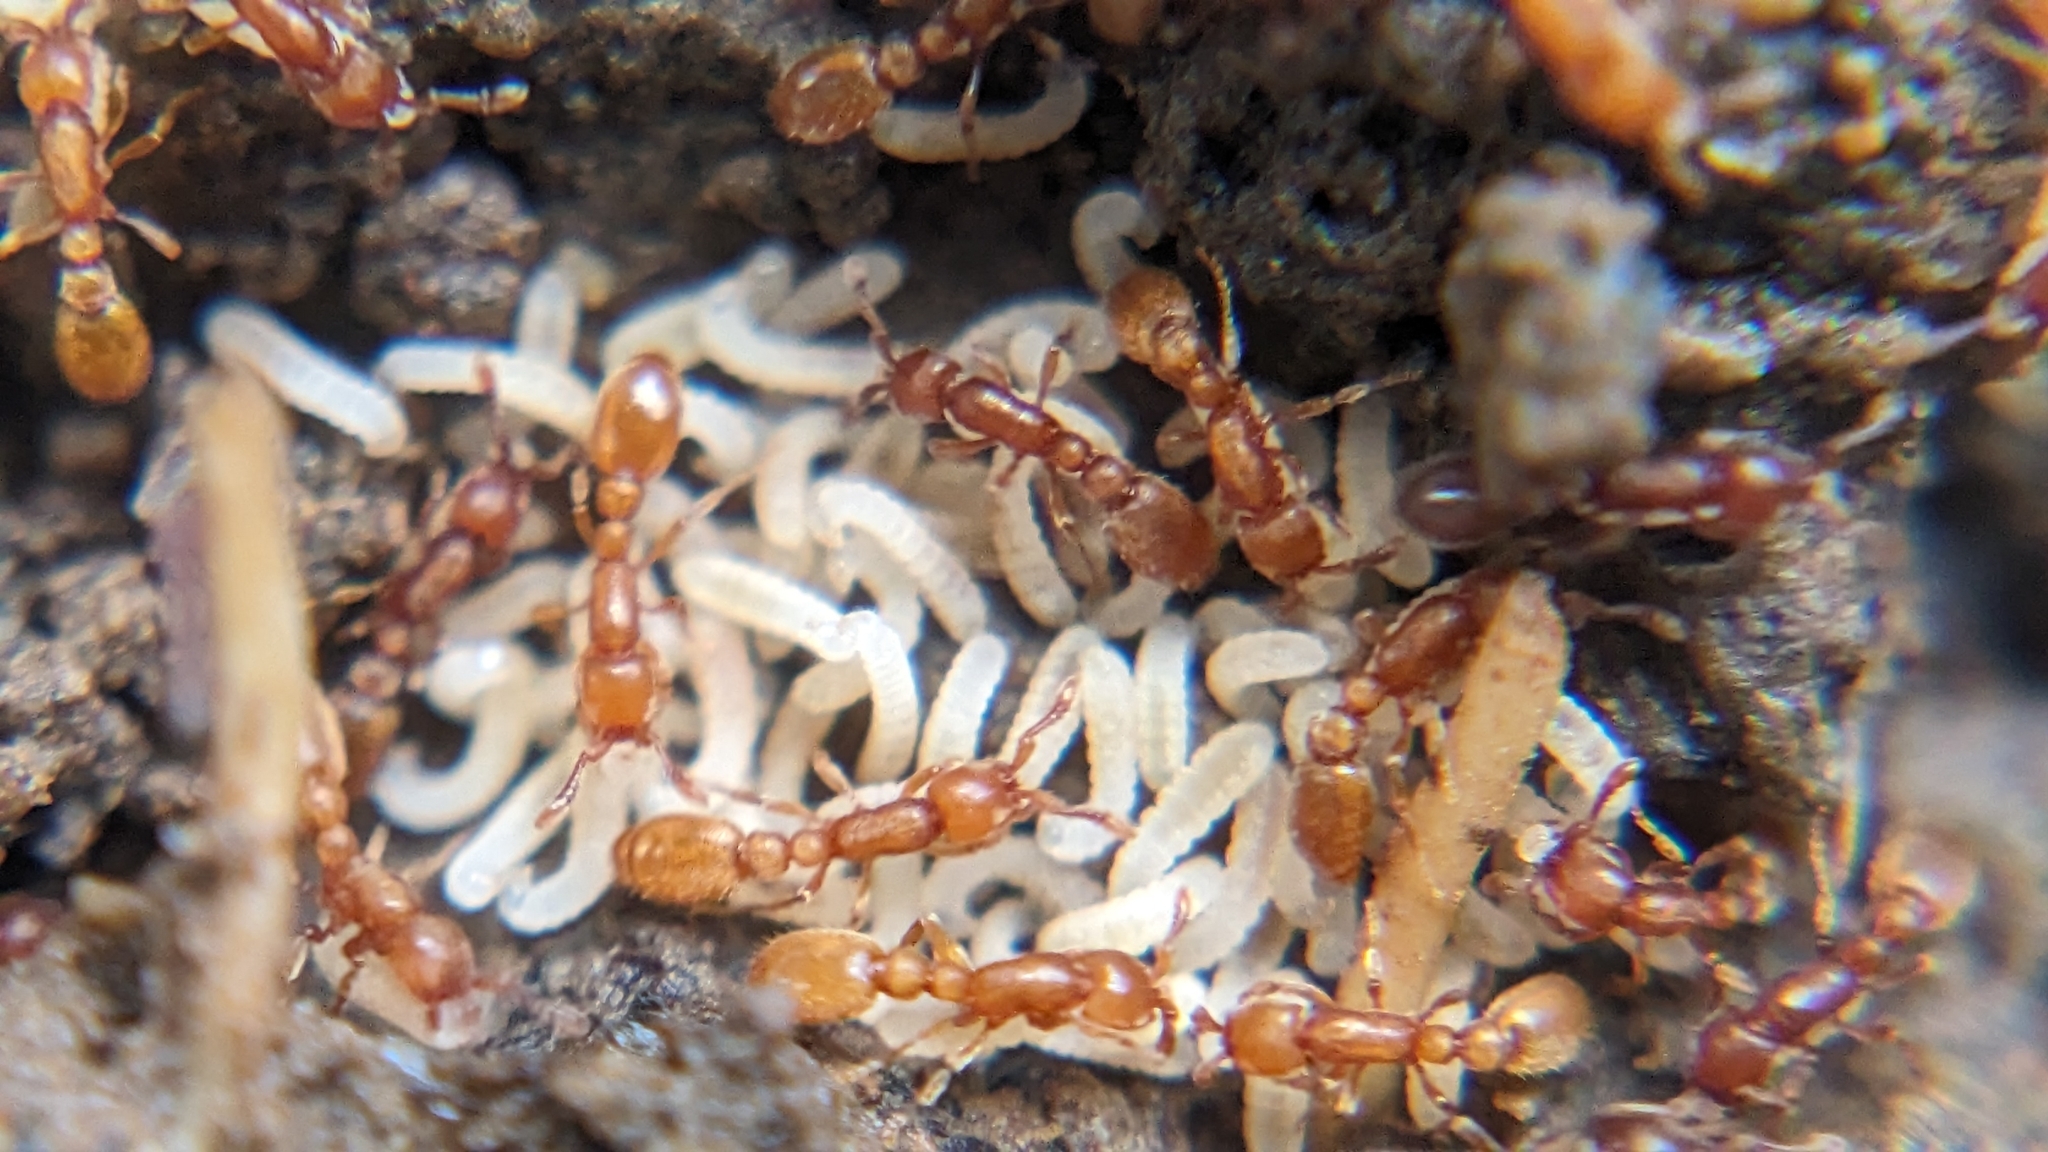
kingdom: Animalia
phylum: Arthropoda
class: Insecta
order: Hymenoptera
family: Formicidae
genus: Ooceraea
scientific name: Ooceraea biroi
